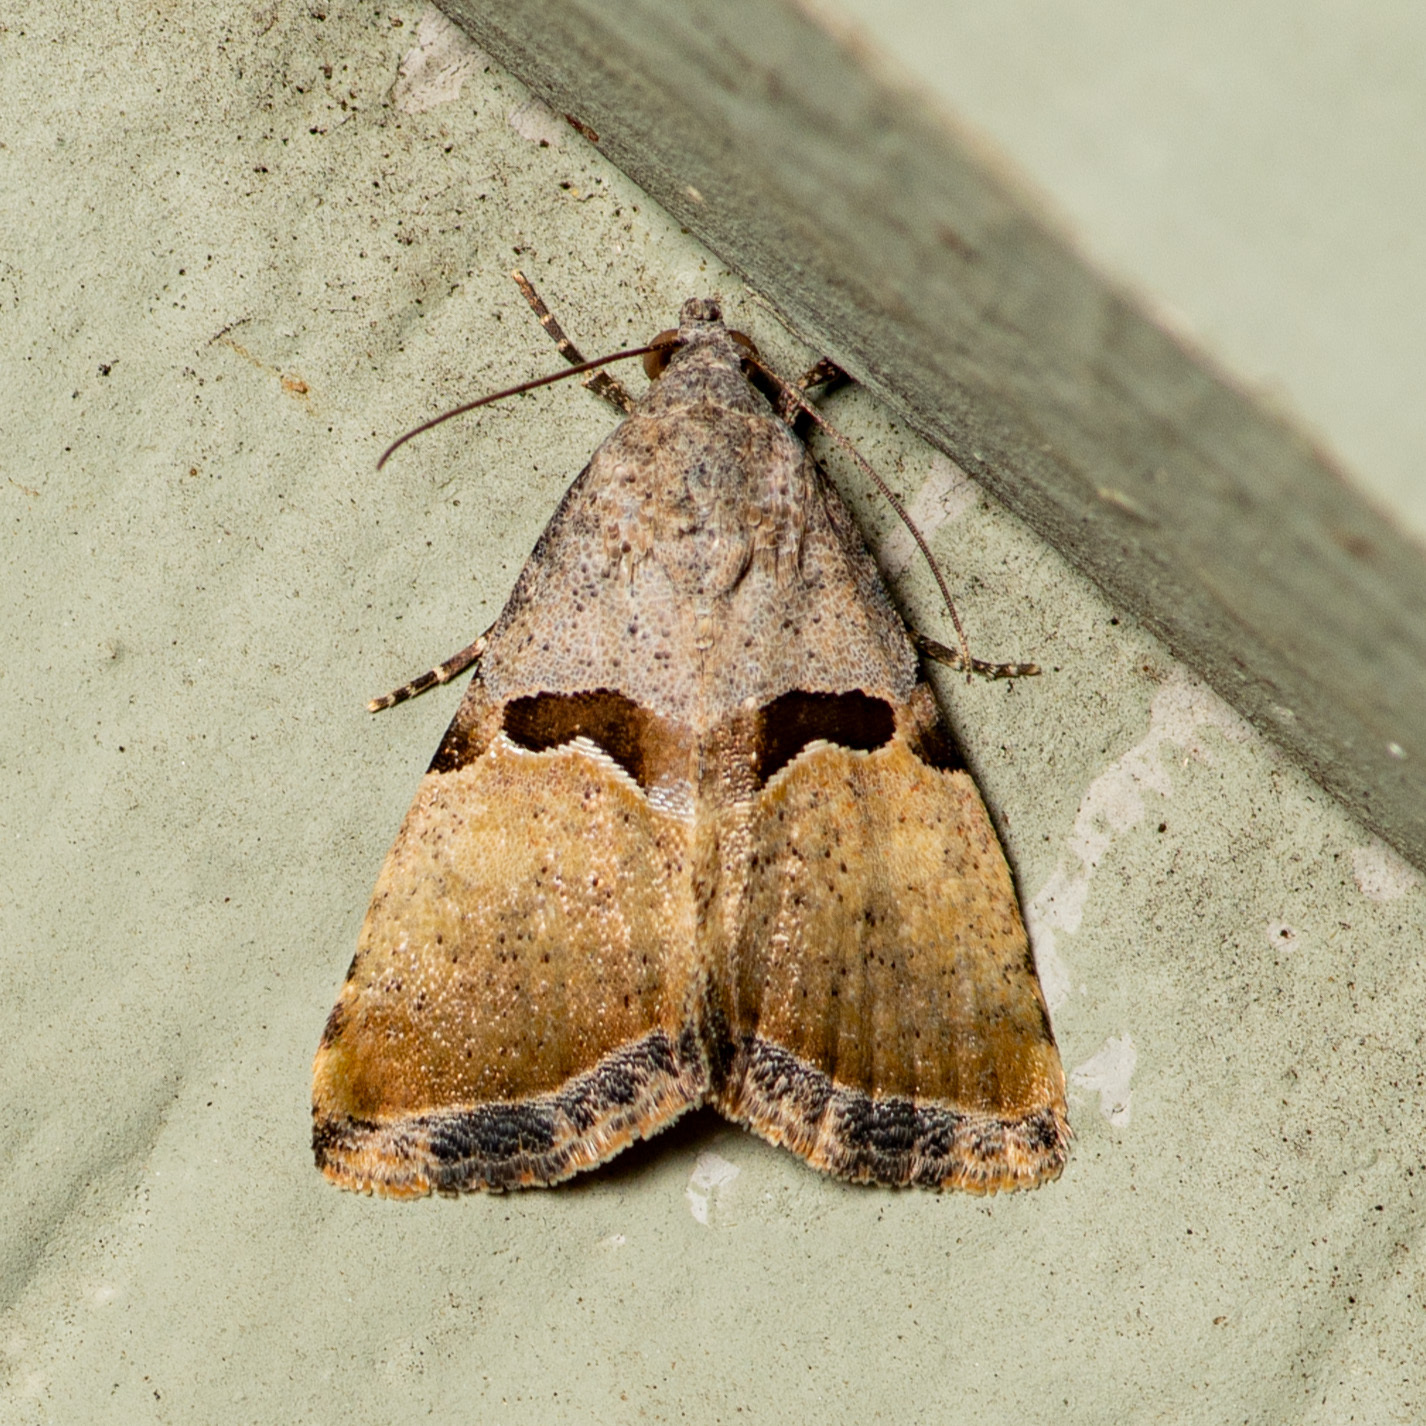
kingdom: Animalia
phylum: Arthropoda
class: Insecta
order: Lepidoptera
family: Noctuidae
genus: Cobubatha
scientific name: Cobubatha lixiva
